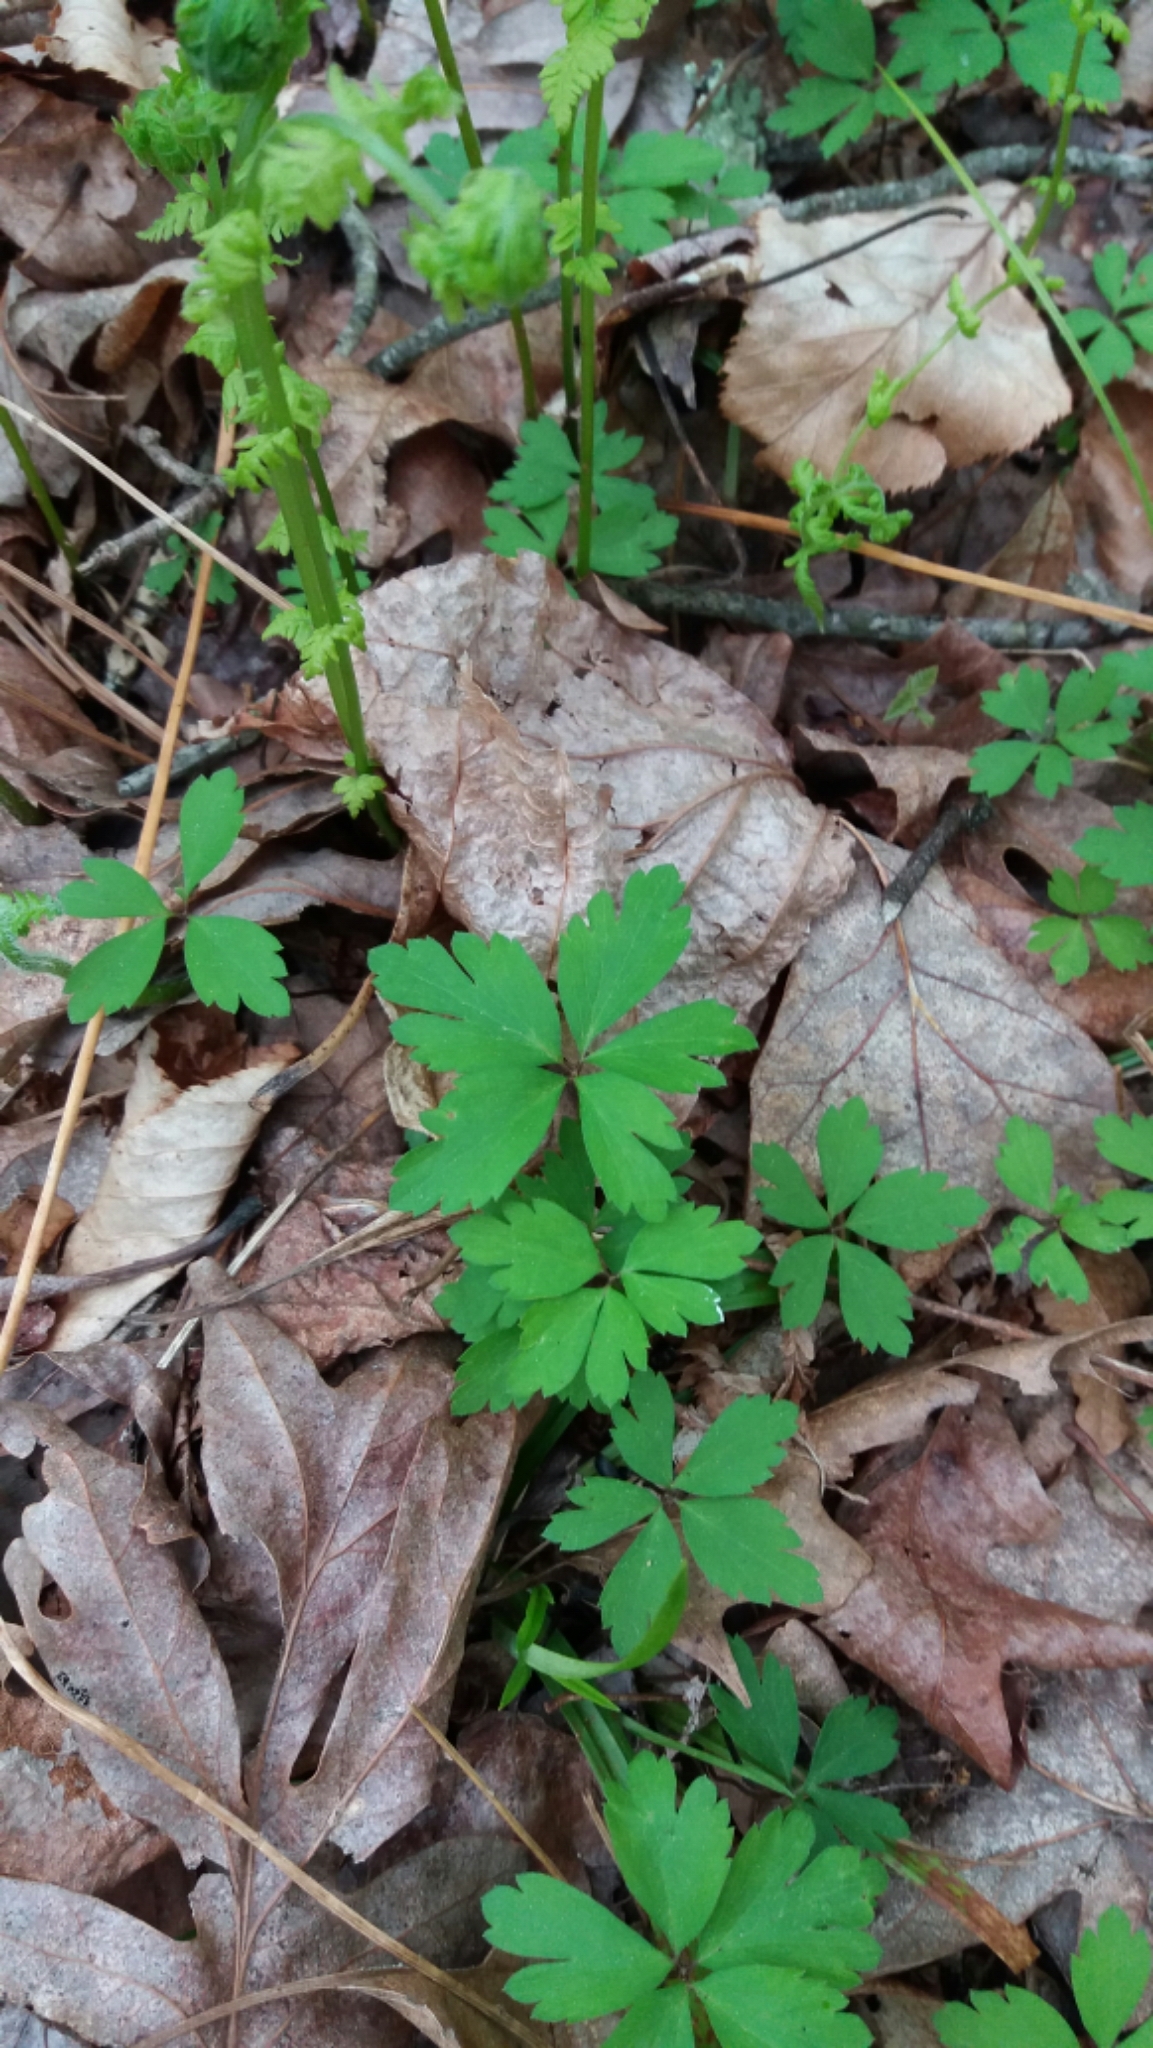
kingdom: Plantae
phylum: Tracheophyta
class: Magnoliopsida
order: Ranunculales
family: Ranunculaceae
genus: Anemone
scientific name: Anemone quinquefolia
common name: Wood anemone
